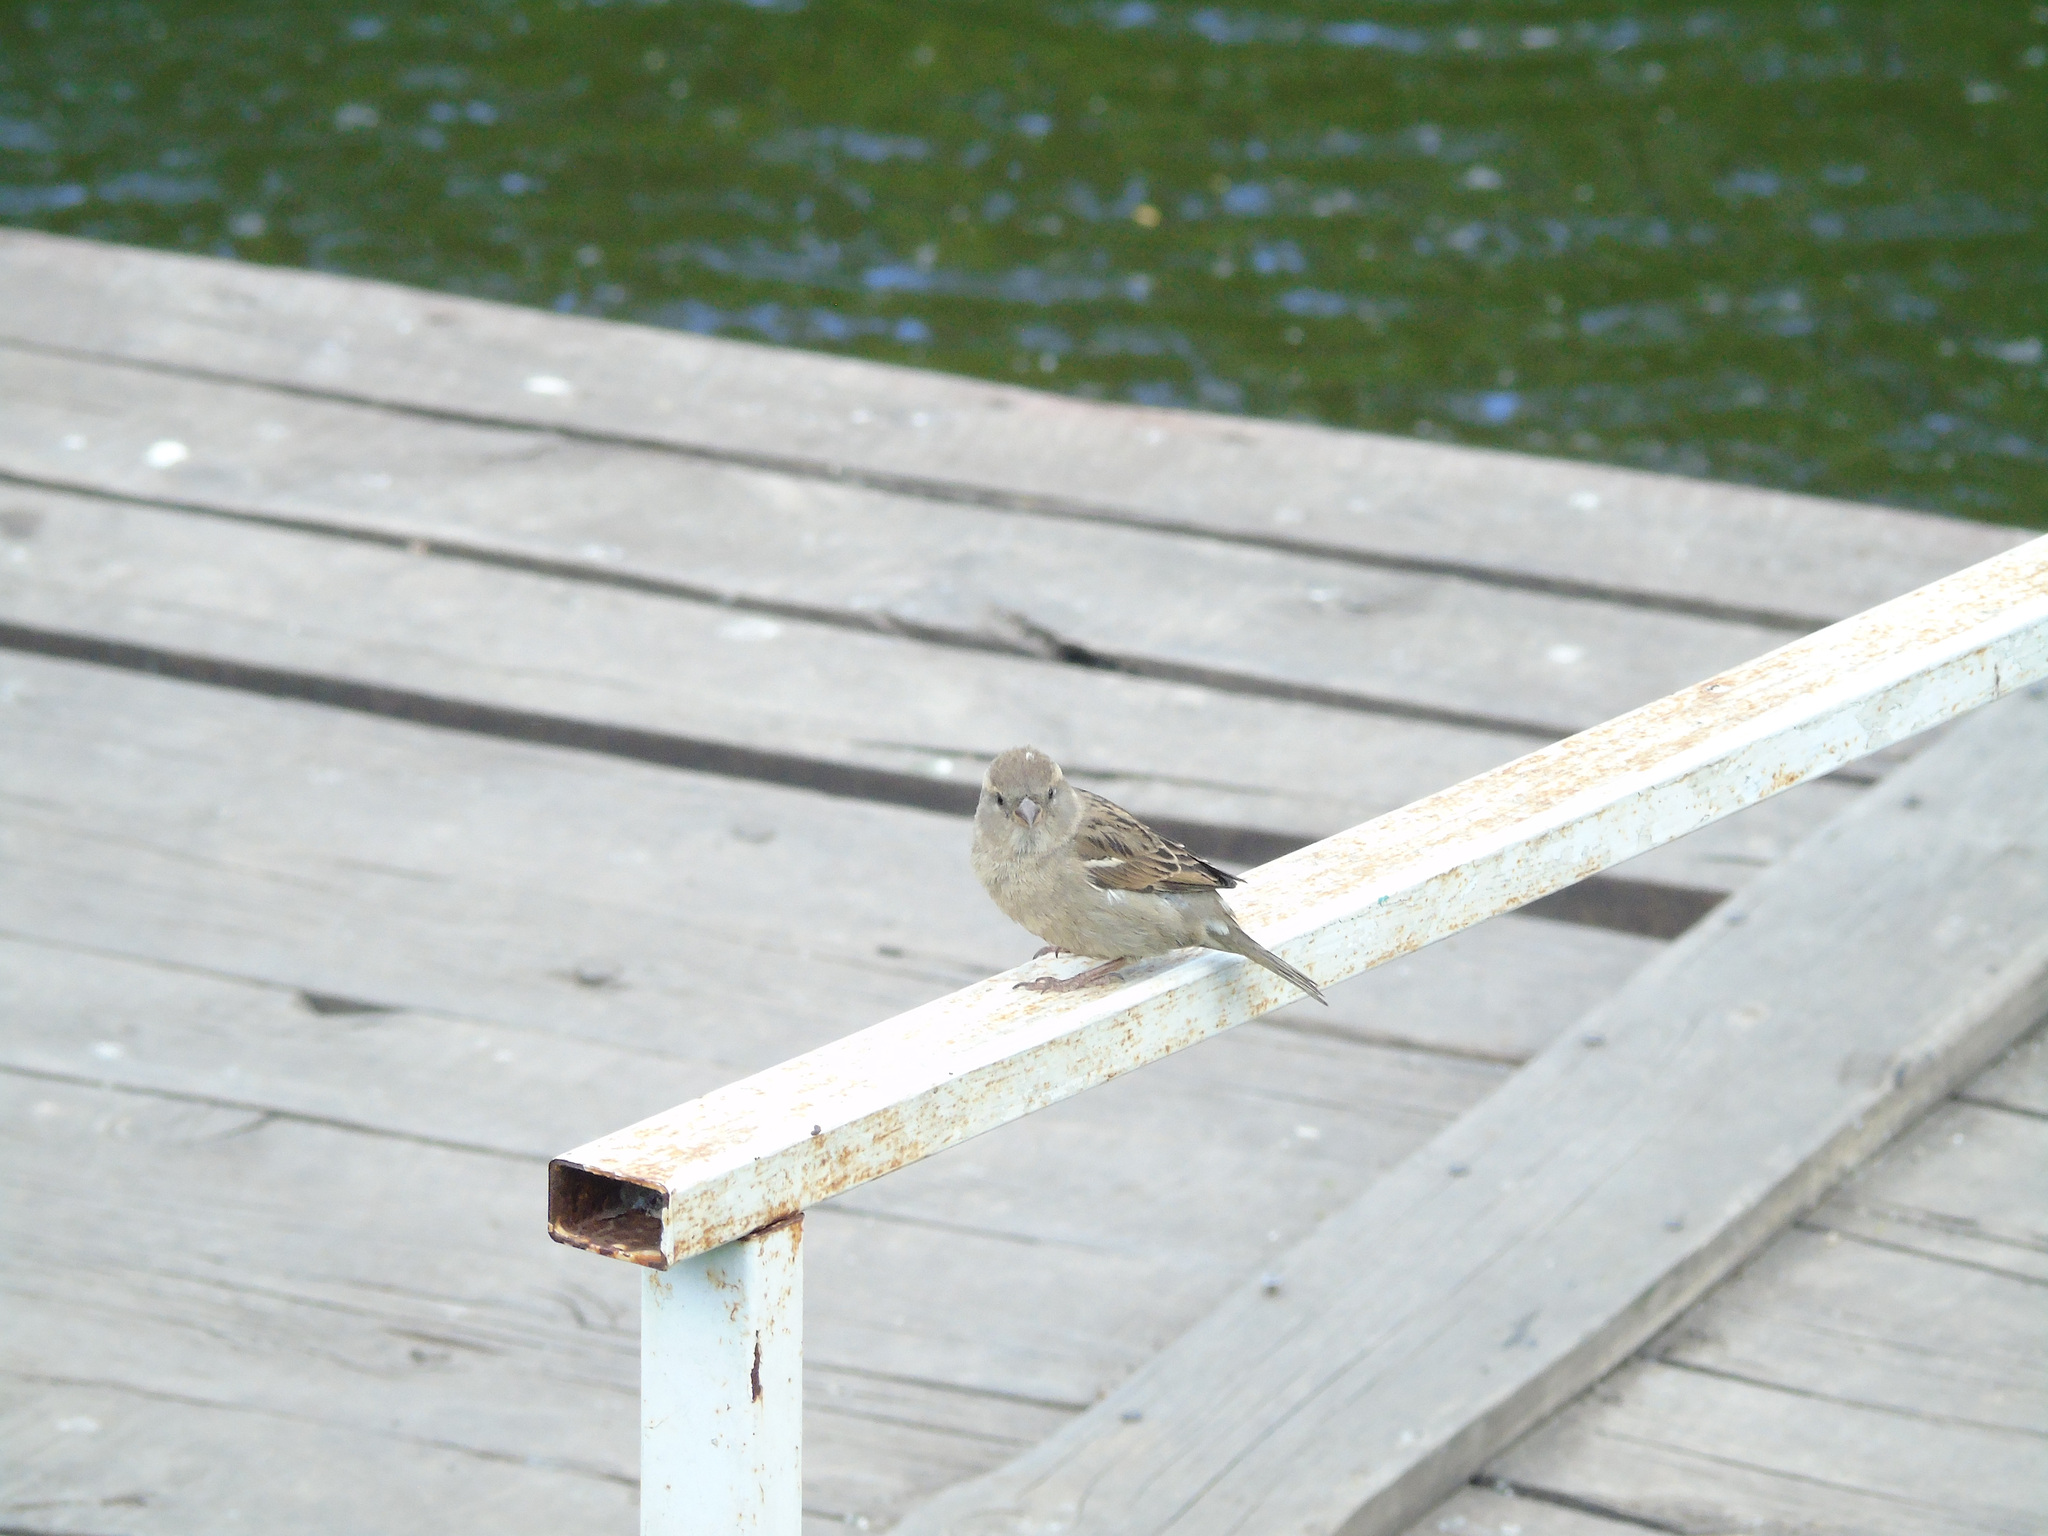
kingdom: Animalia
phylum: Chordata
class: Aves
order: Passeriformes
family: Passeridae
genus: Passer
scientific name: Passer domesticus
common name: House sparrow
